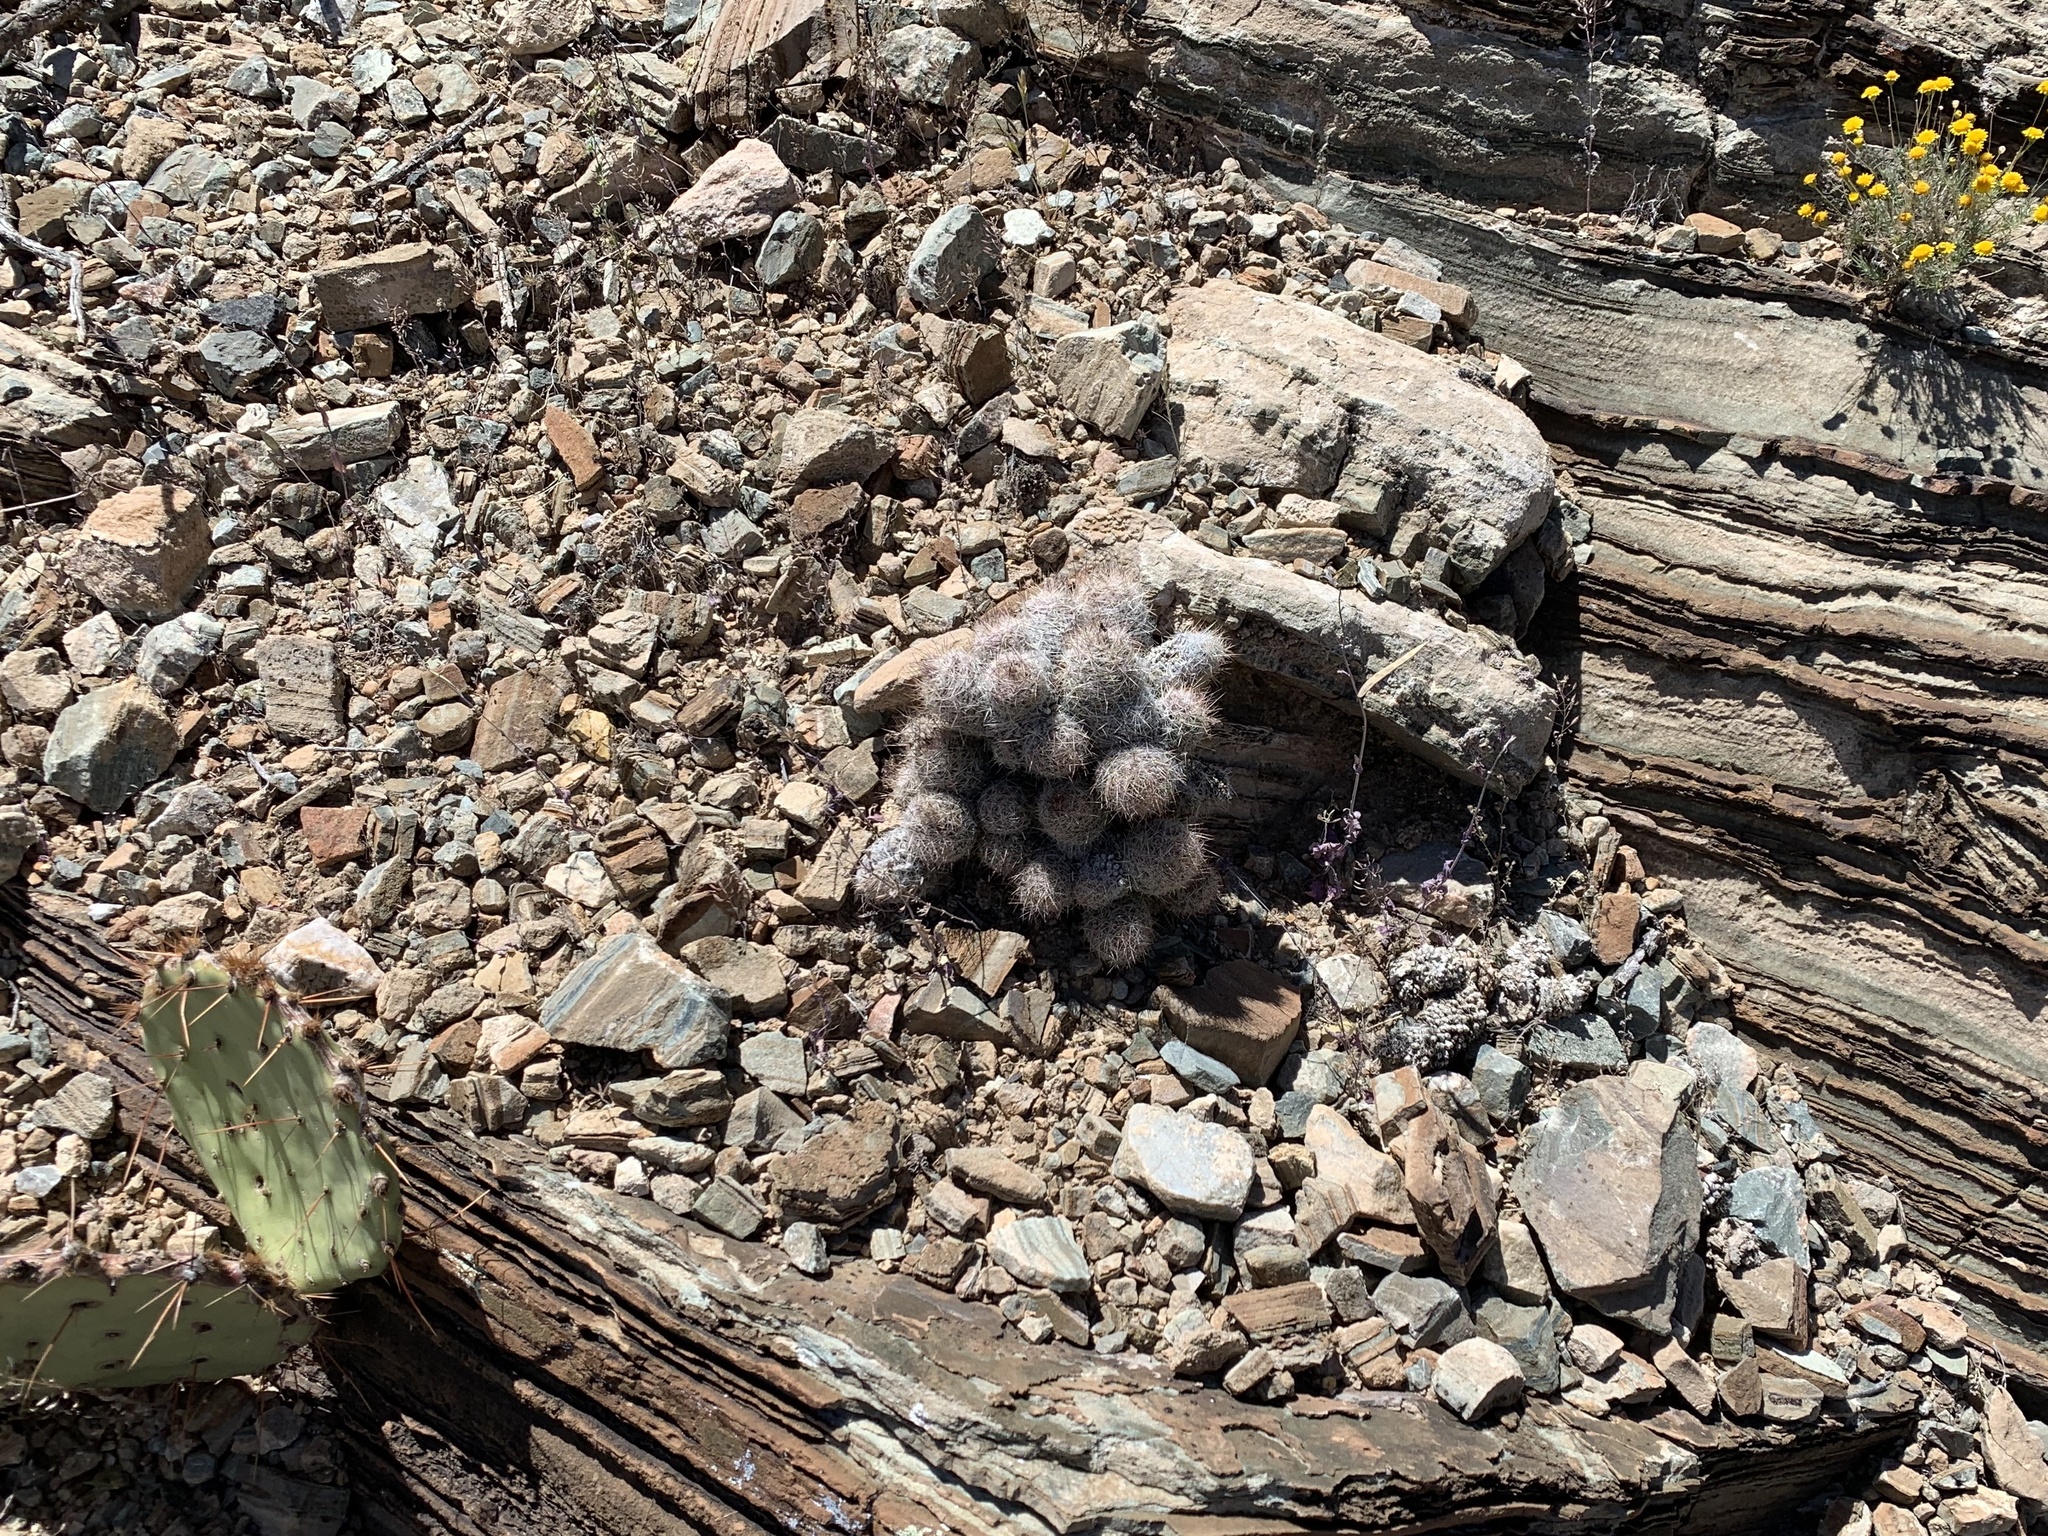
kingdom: Plantae
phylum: Tracheophyta
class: Magnoliopsida
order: Caryophyllales
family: Cactaceae
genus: Pelecyphora
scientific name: Pelecyphora tuberculosa
